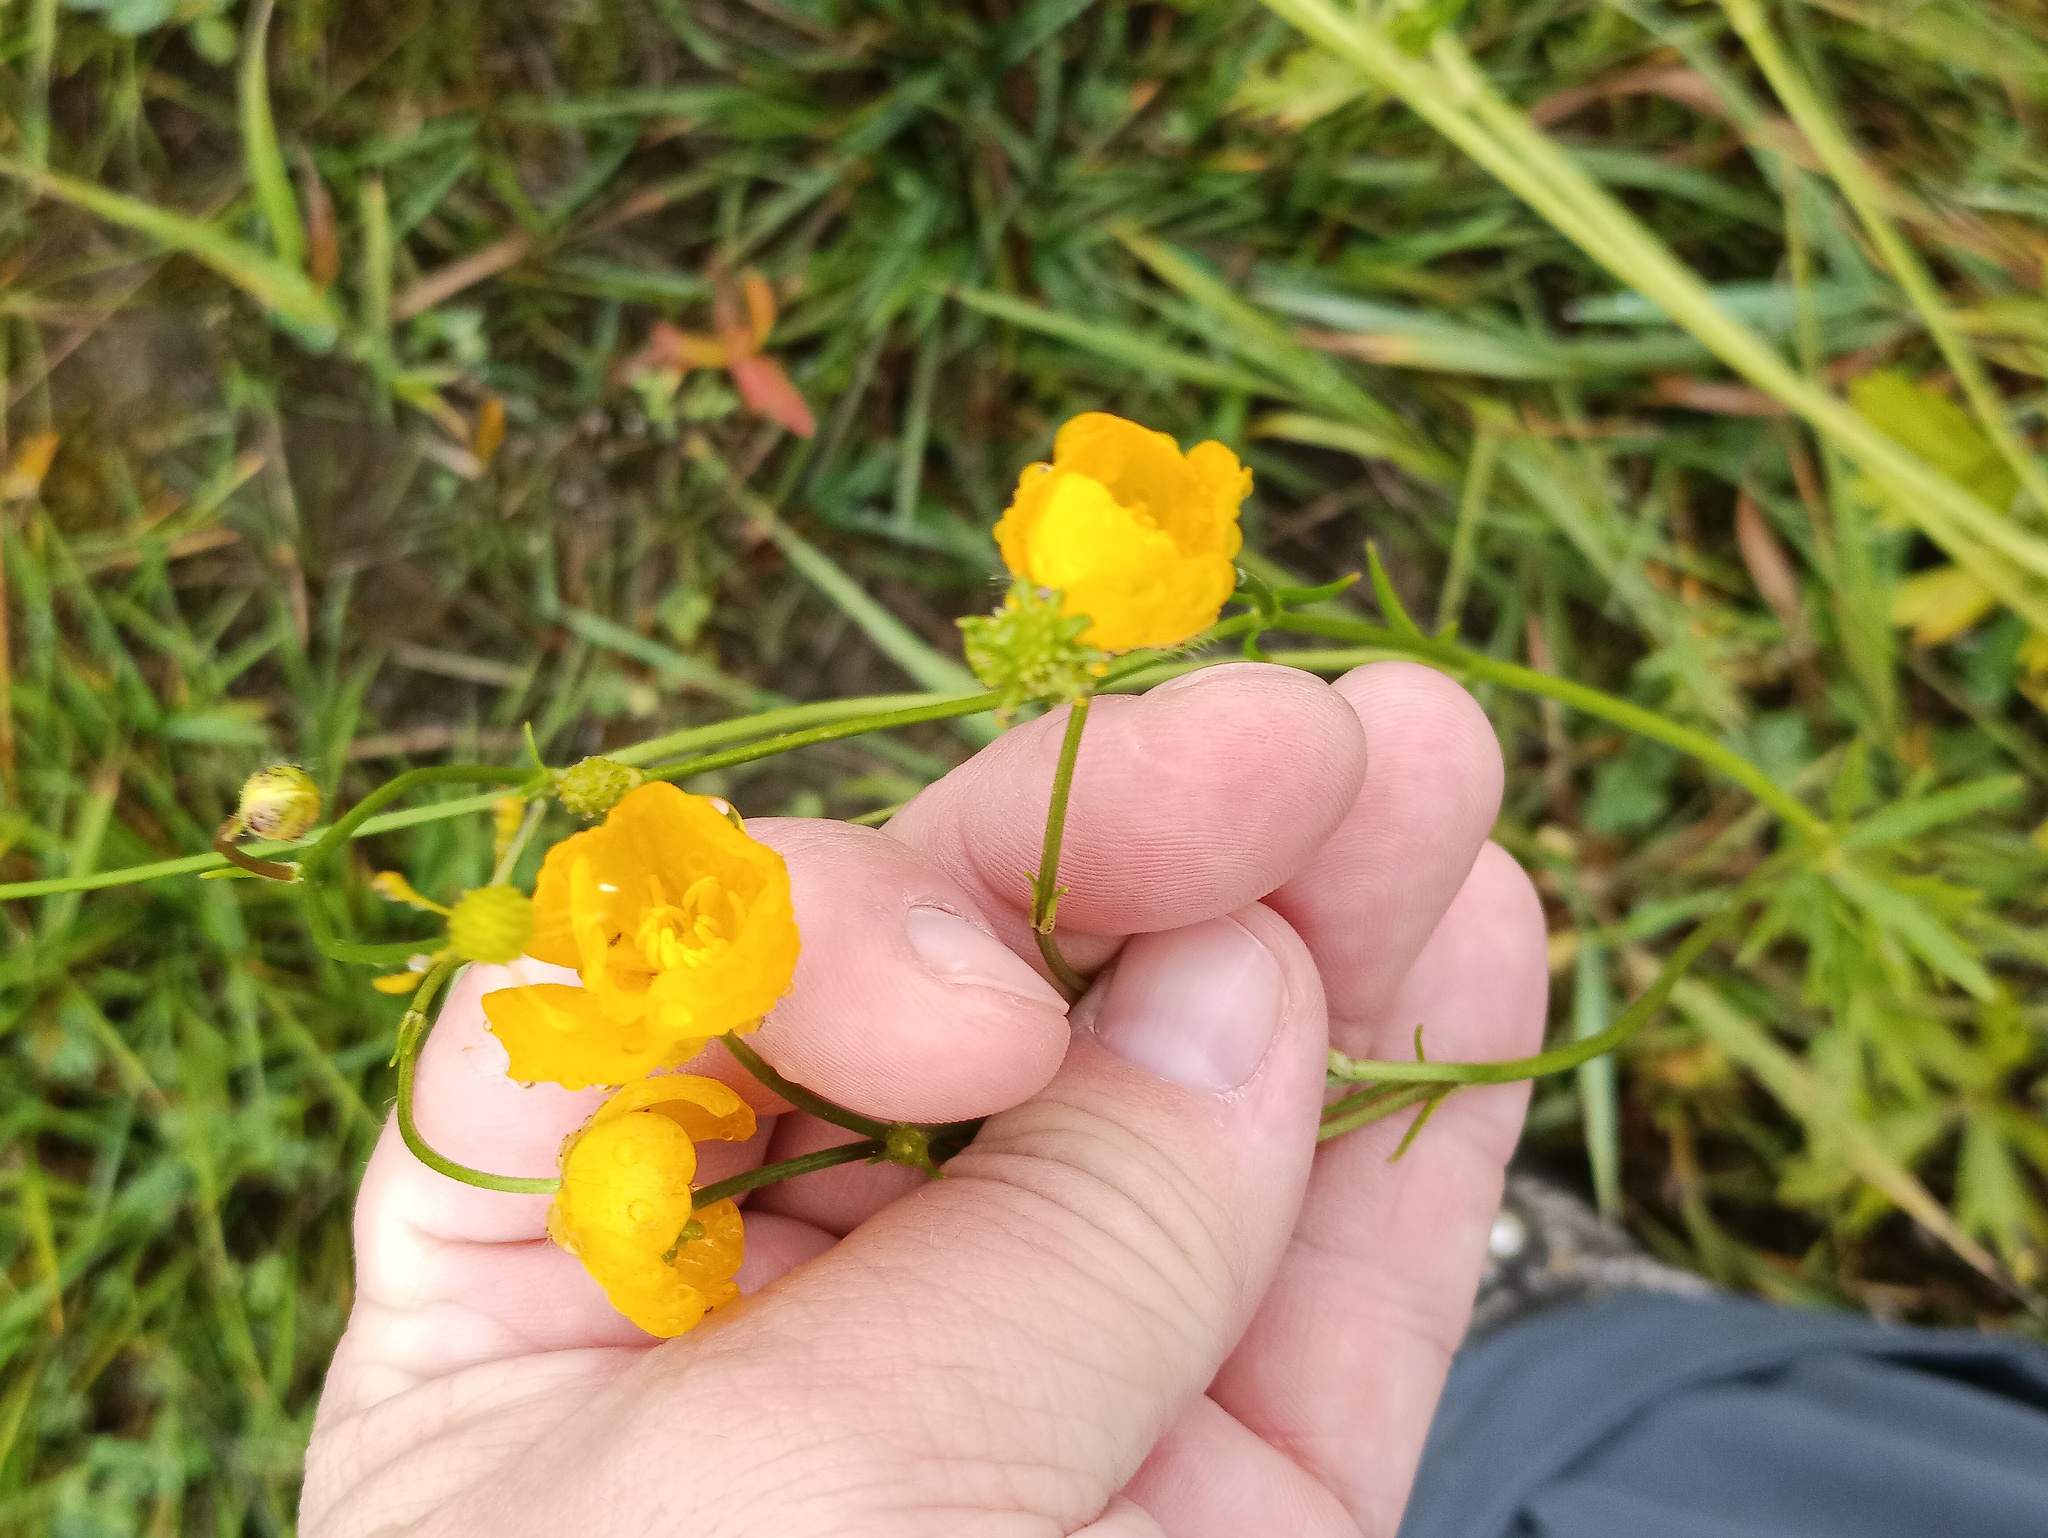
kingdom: Plantae
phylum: Tracheophyta
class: Magnoliopsida
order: Ranunculales
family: Ranunculaceae
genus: Ranunculus
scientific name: Ranunculus polyanthemos
